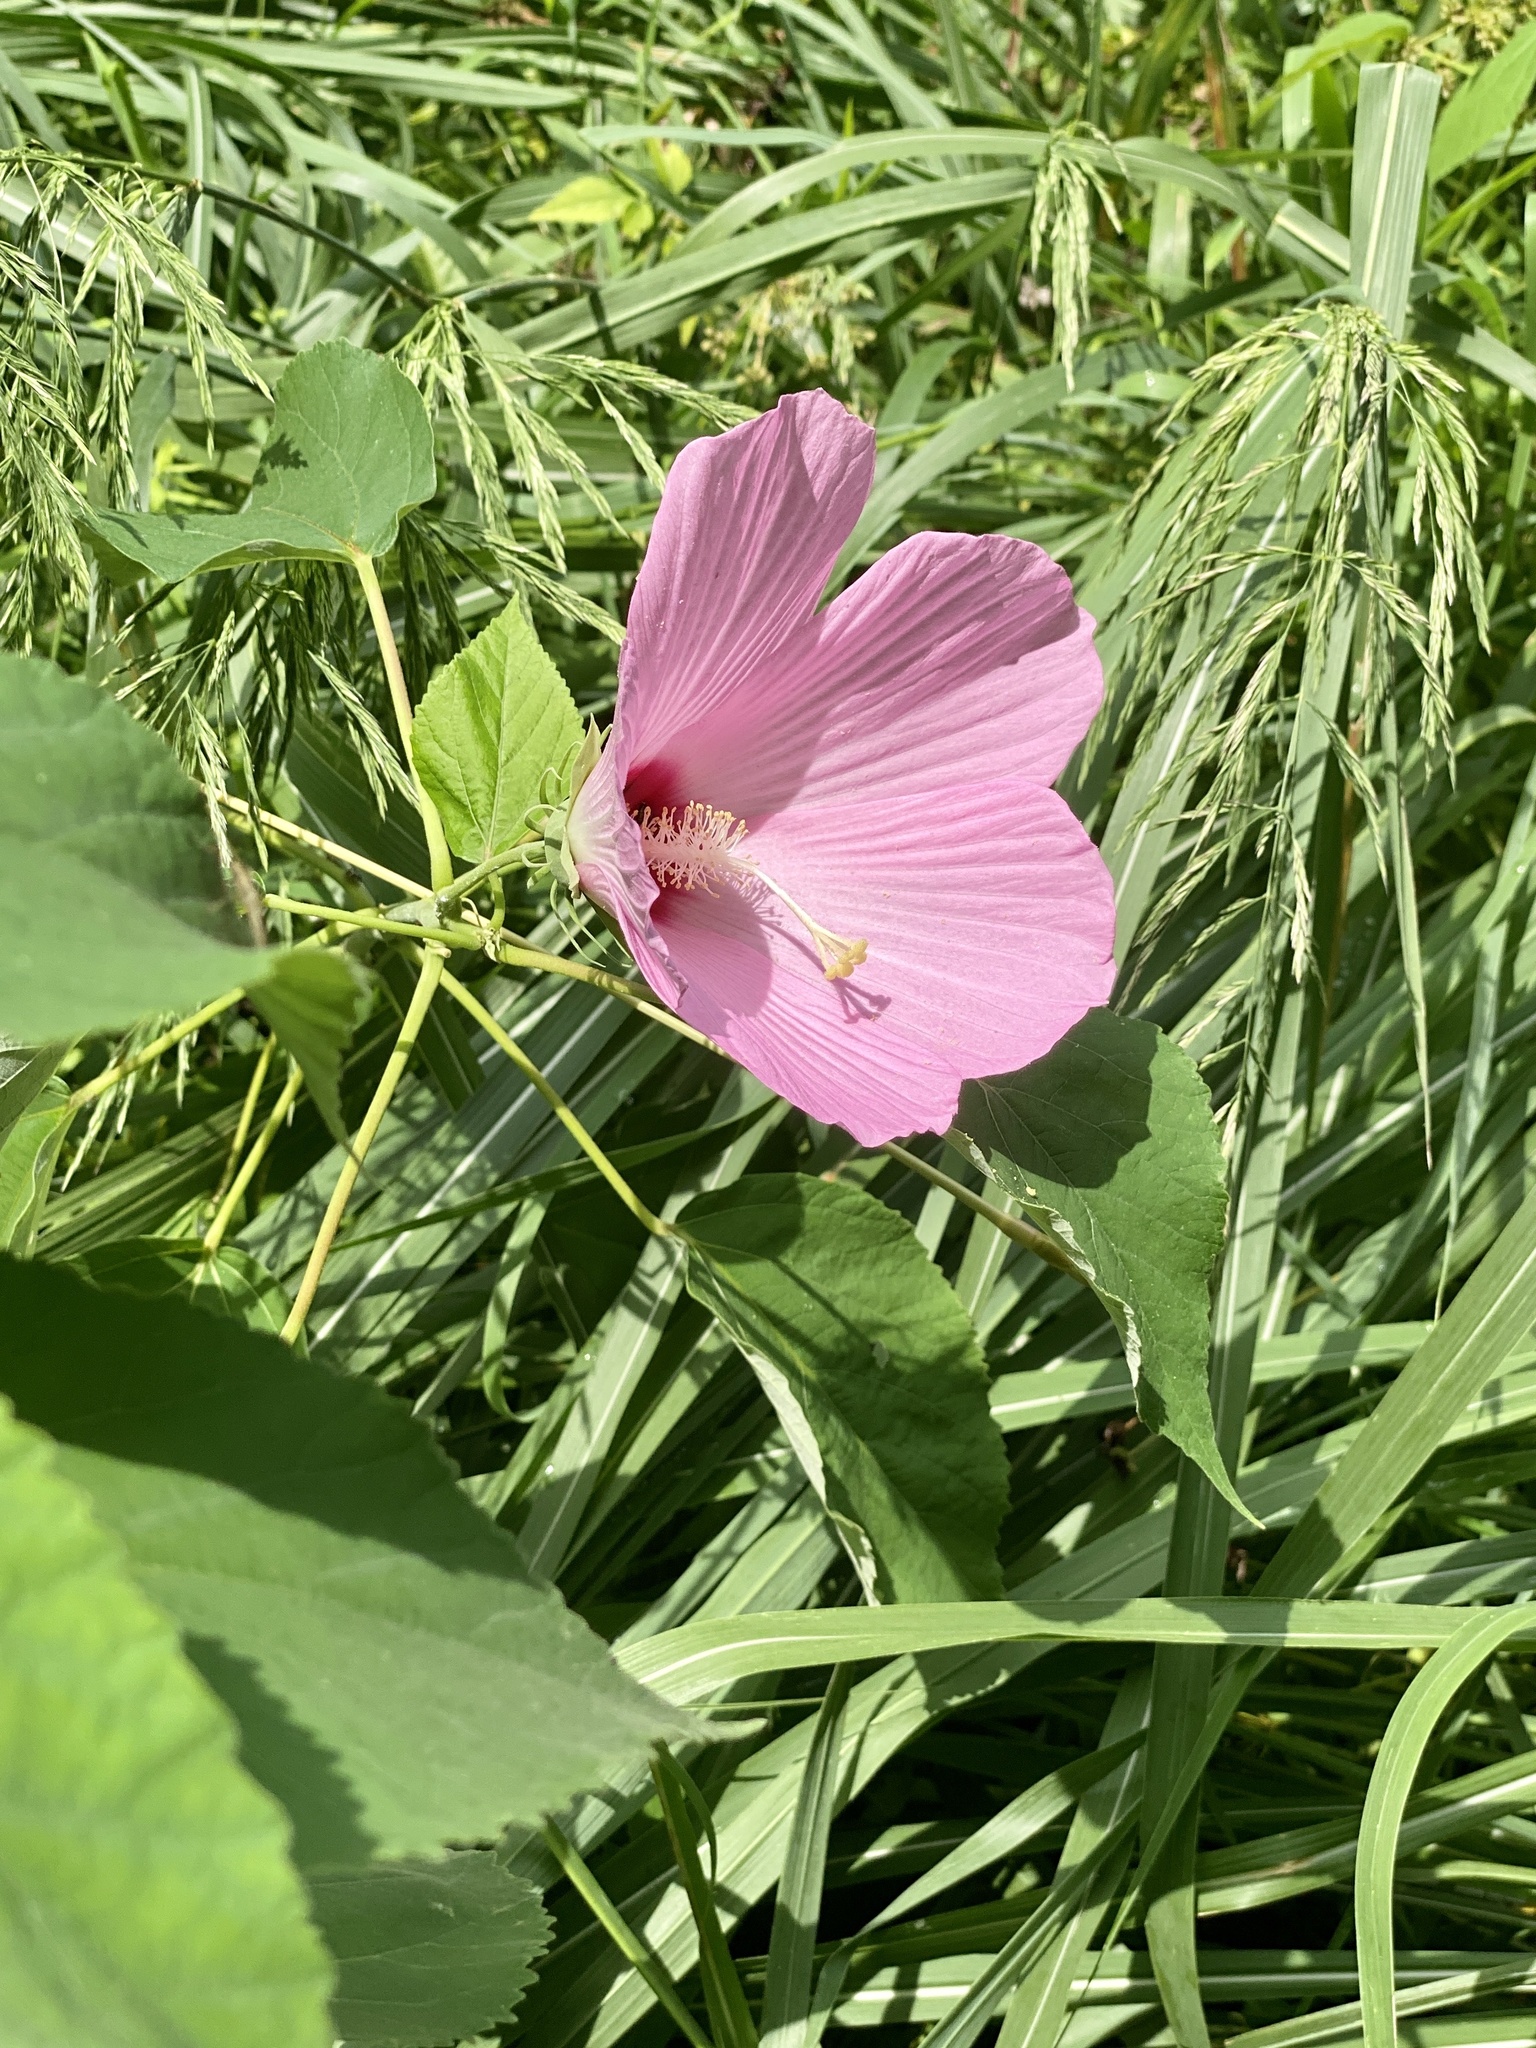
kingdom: Plantae
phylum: Tracheophyta
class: Magnoliopsida
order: Malvales
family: Malvaceae
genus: Hibiscus
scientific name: Hibiscus moscheutos
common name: Common rose-mallow
